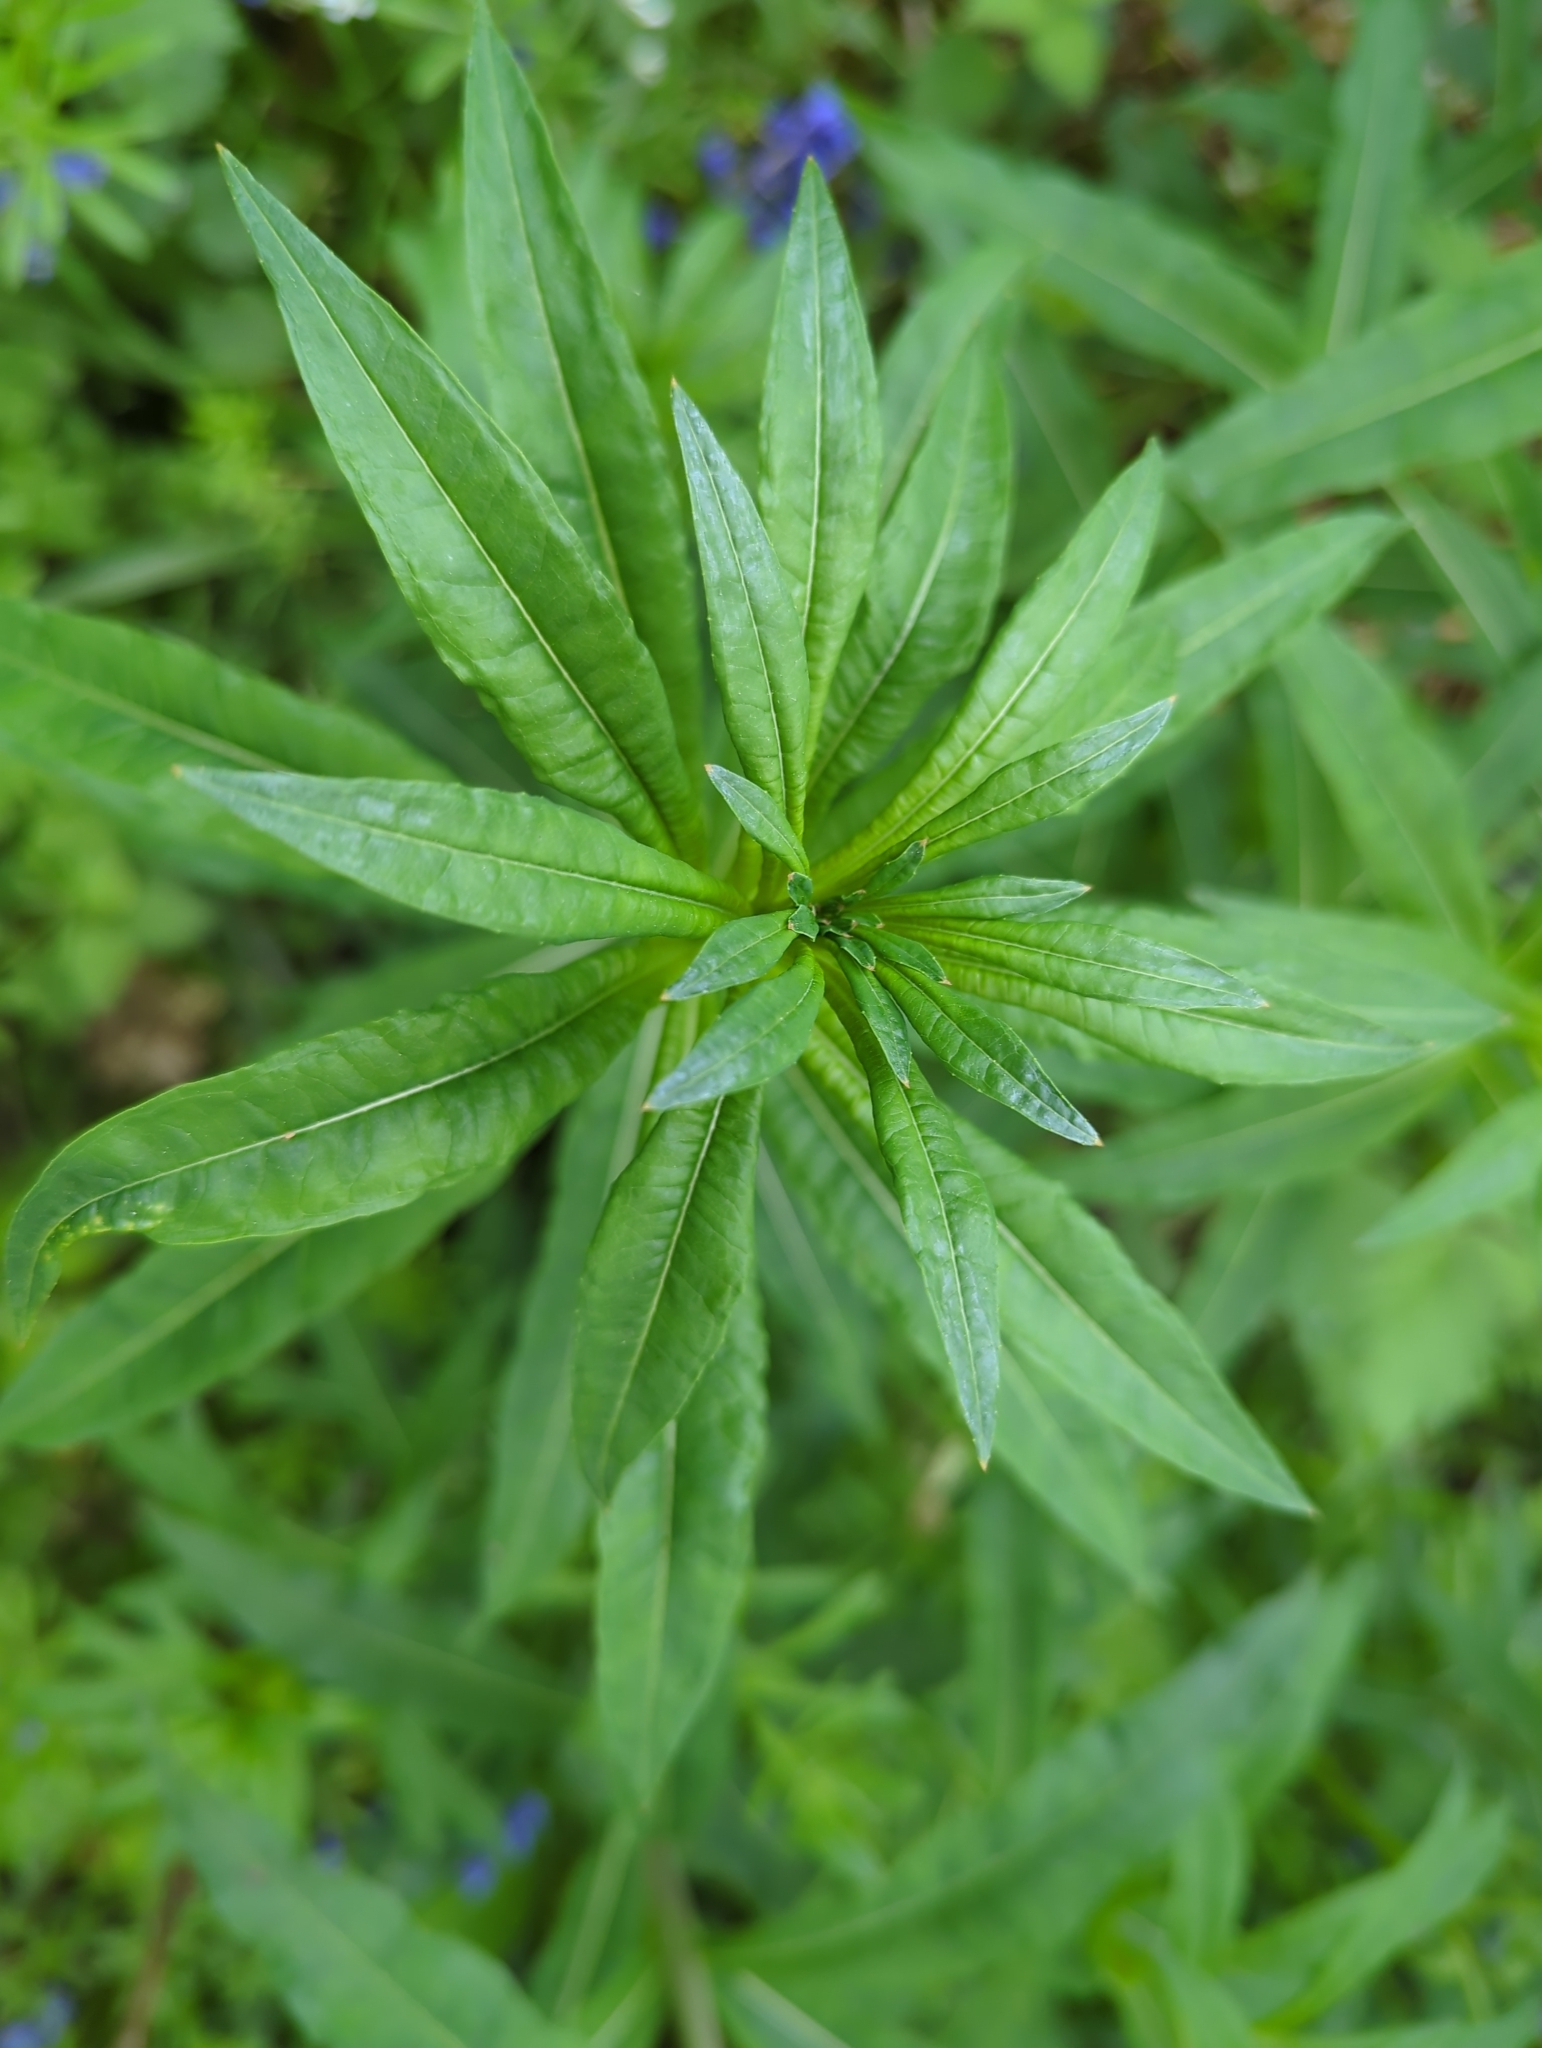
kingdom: Plantae
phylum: Tracheophyta
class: Magnoliopsida
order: Myrtales
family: Onagraceae
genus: Chamaenerion
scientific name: Chamaenerion angustifolium
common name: Fireweed
